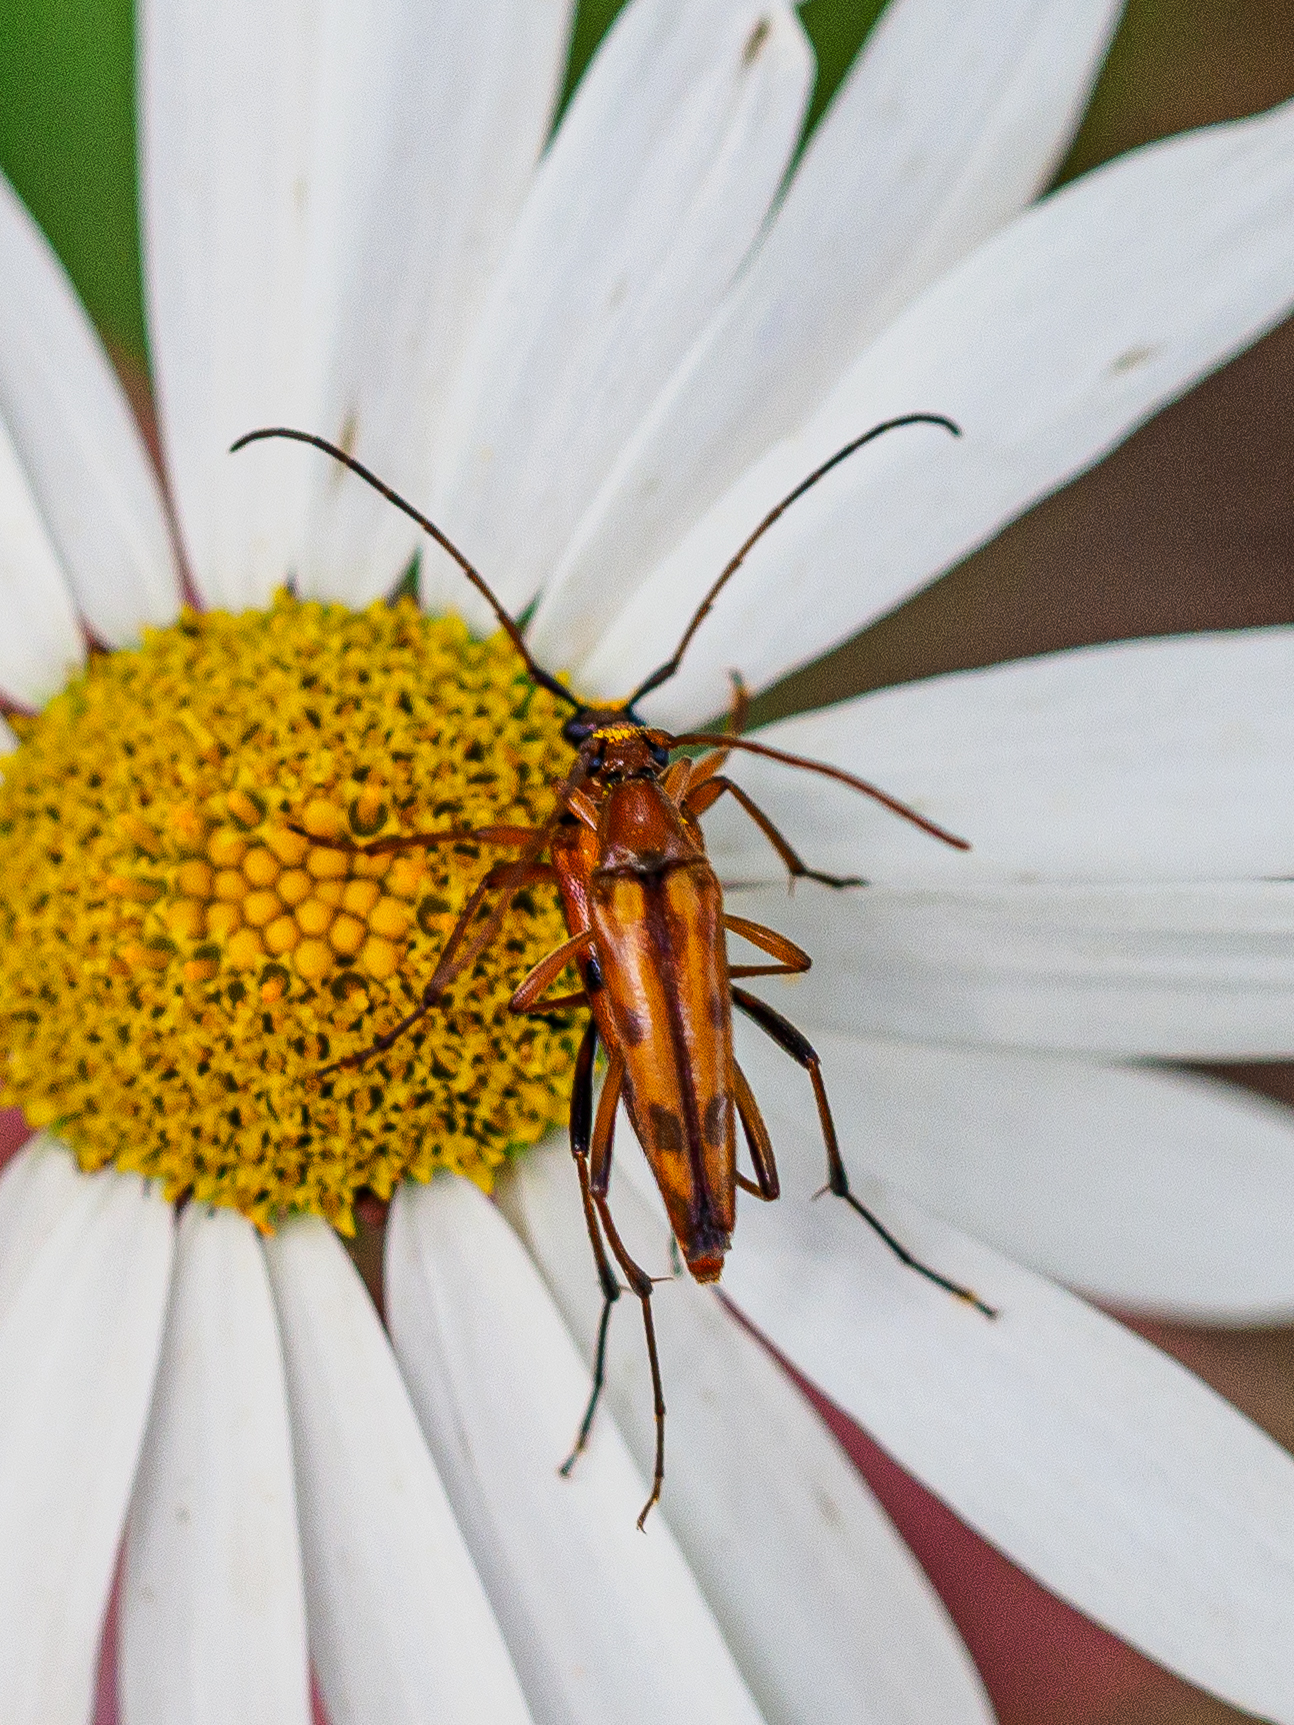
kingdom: Animalia
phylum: Arthropoda
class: Insecta
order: Coleoptera
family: Cerambycidae
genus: Stenurella
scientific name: Stenurella septempunctata
